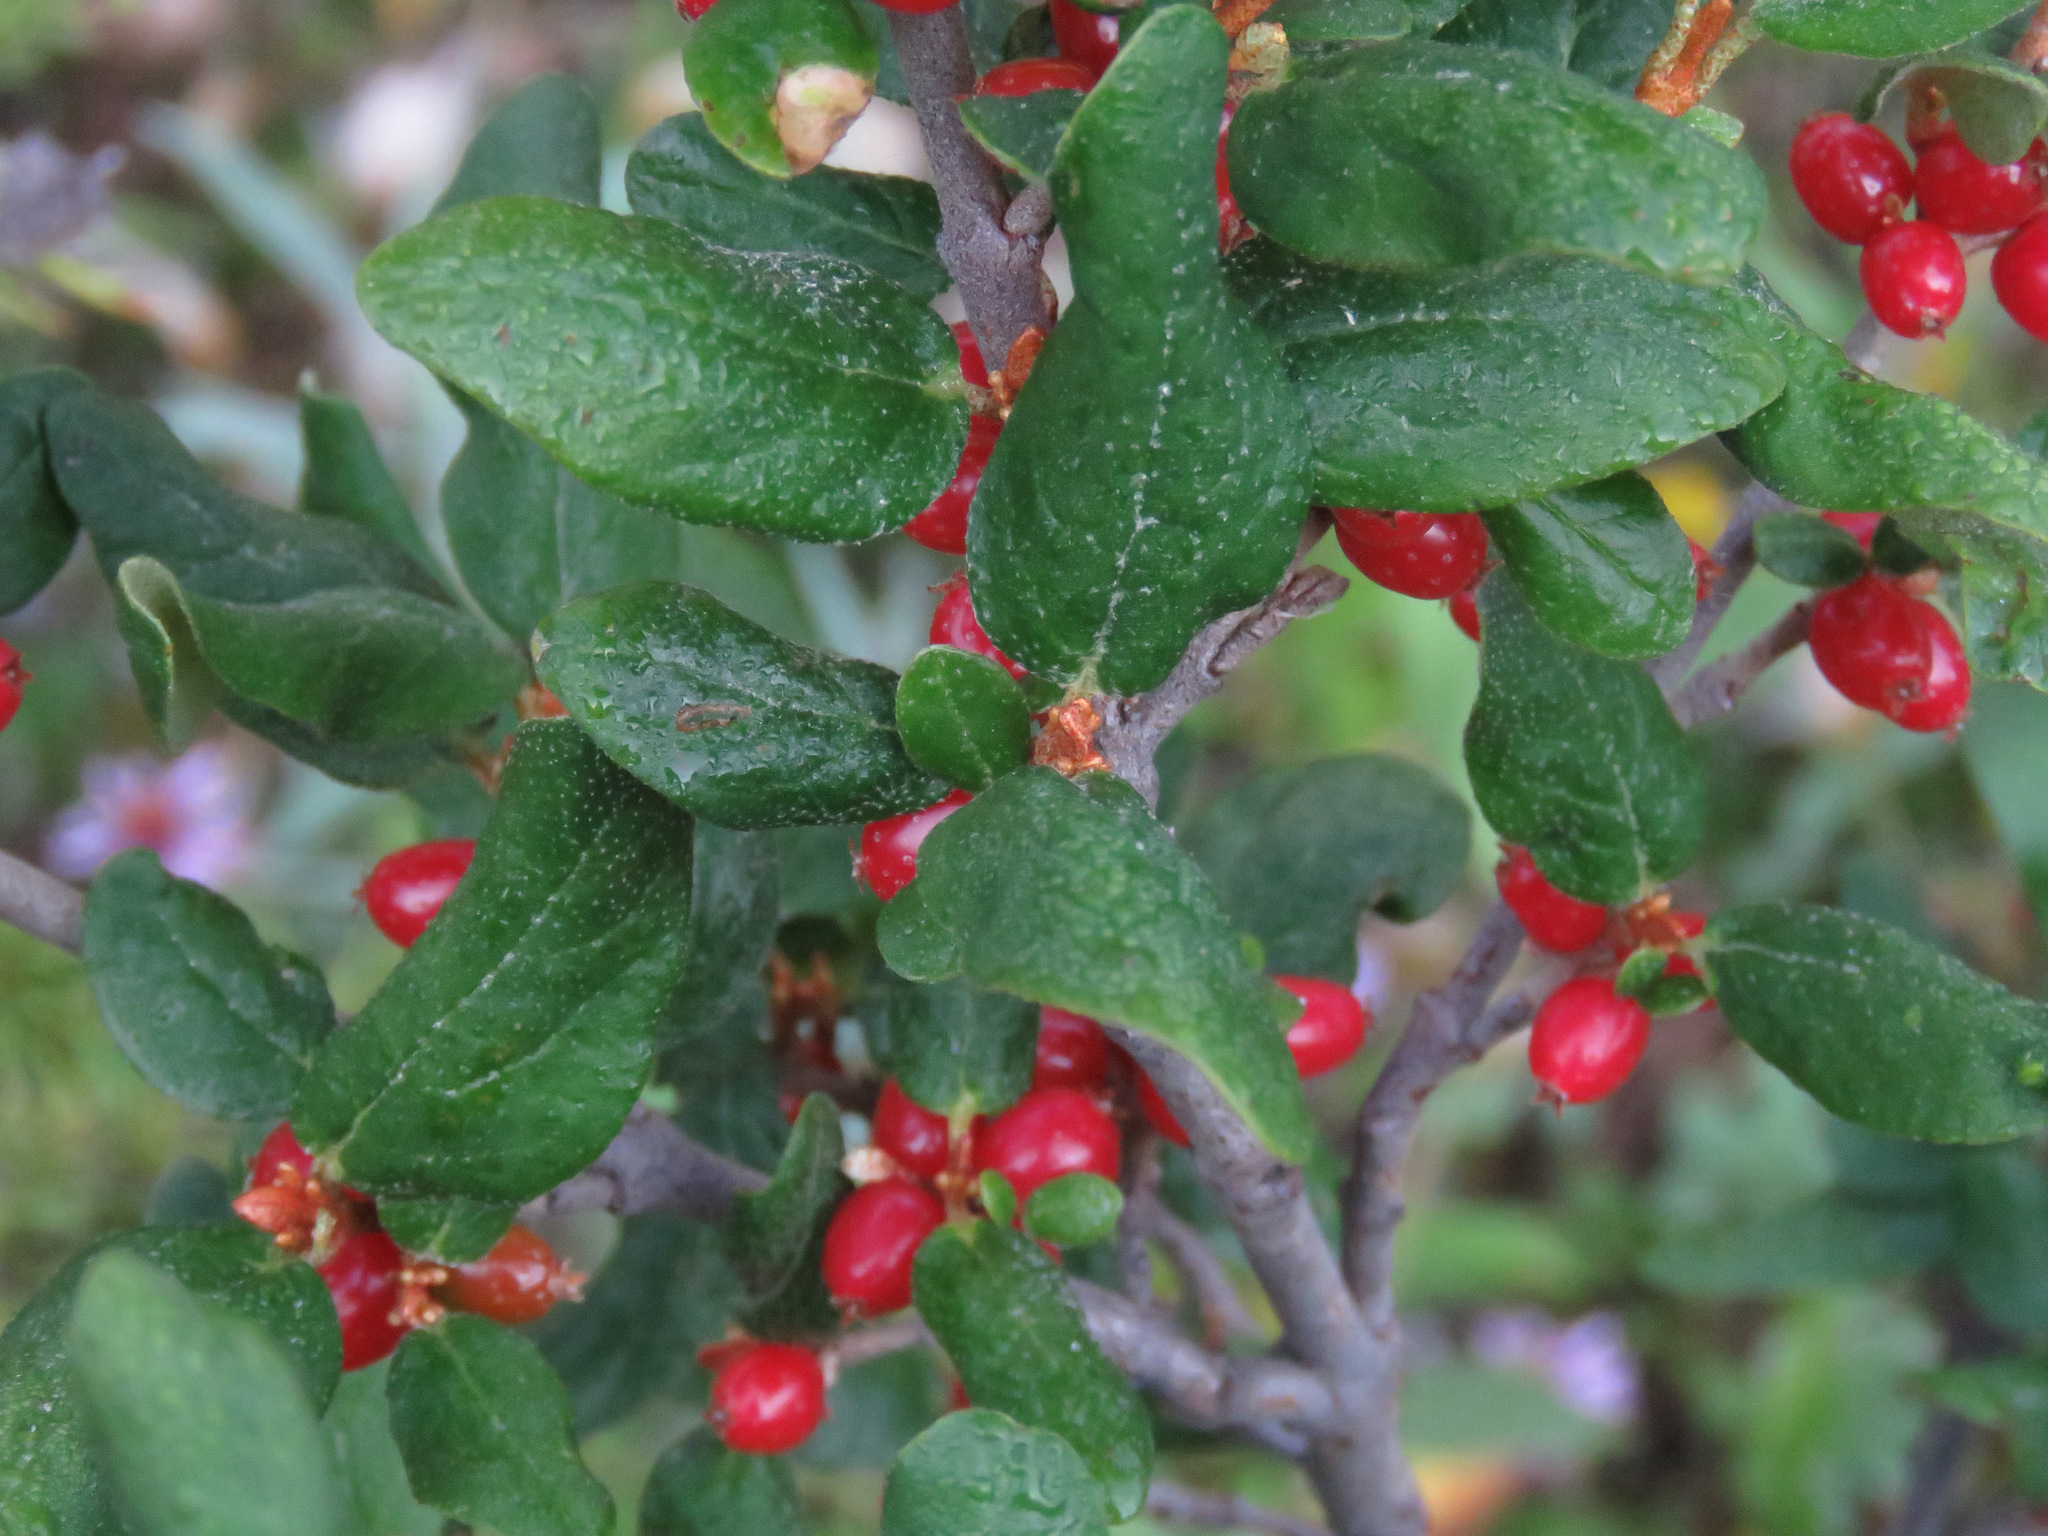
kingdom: Plantae
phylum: Tracheophyta
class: Magnoliopsida
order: Rosales
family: Elaeagnaceae
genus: Shepherdia
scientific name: Shepherdia canadensis
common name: Soapberry
